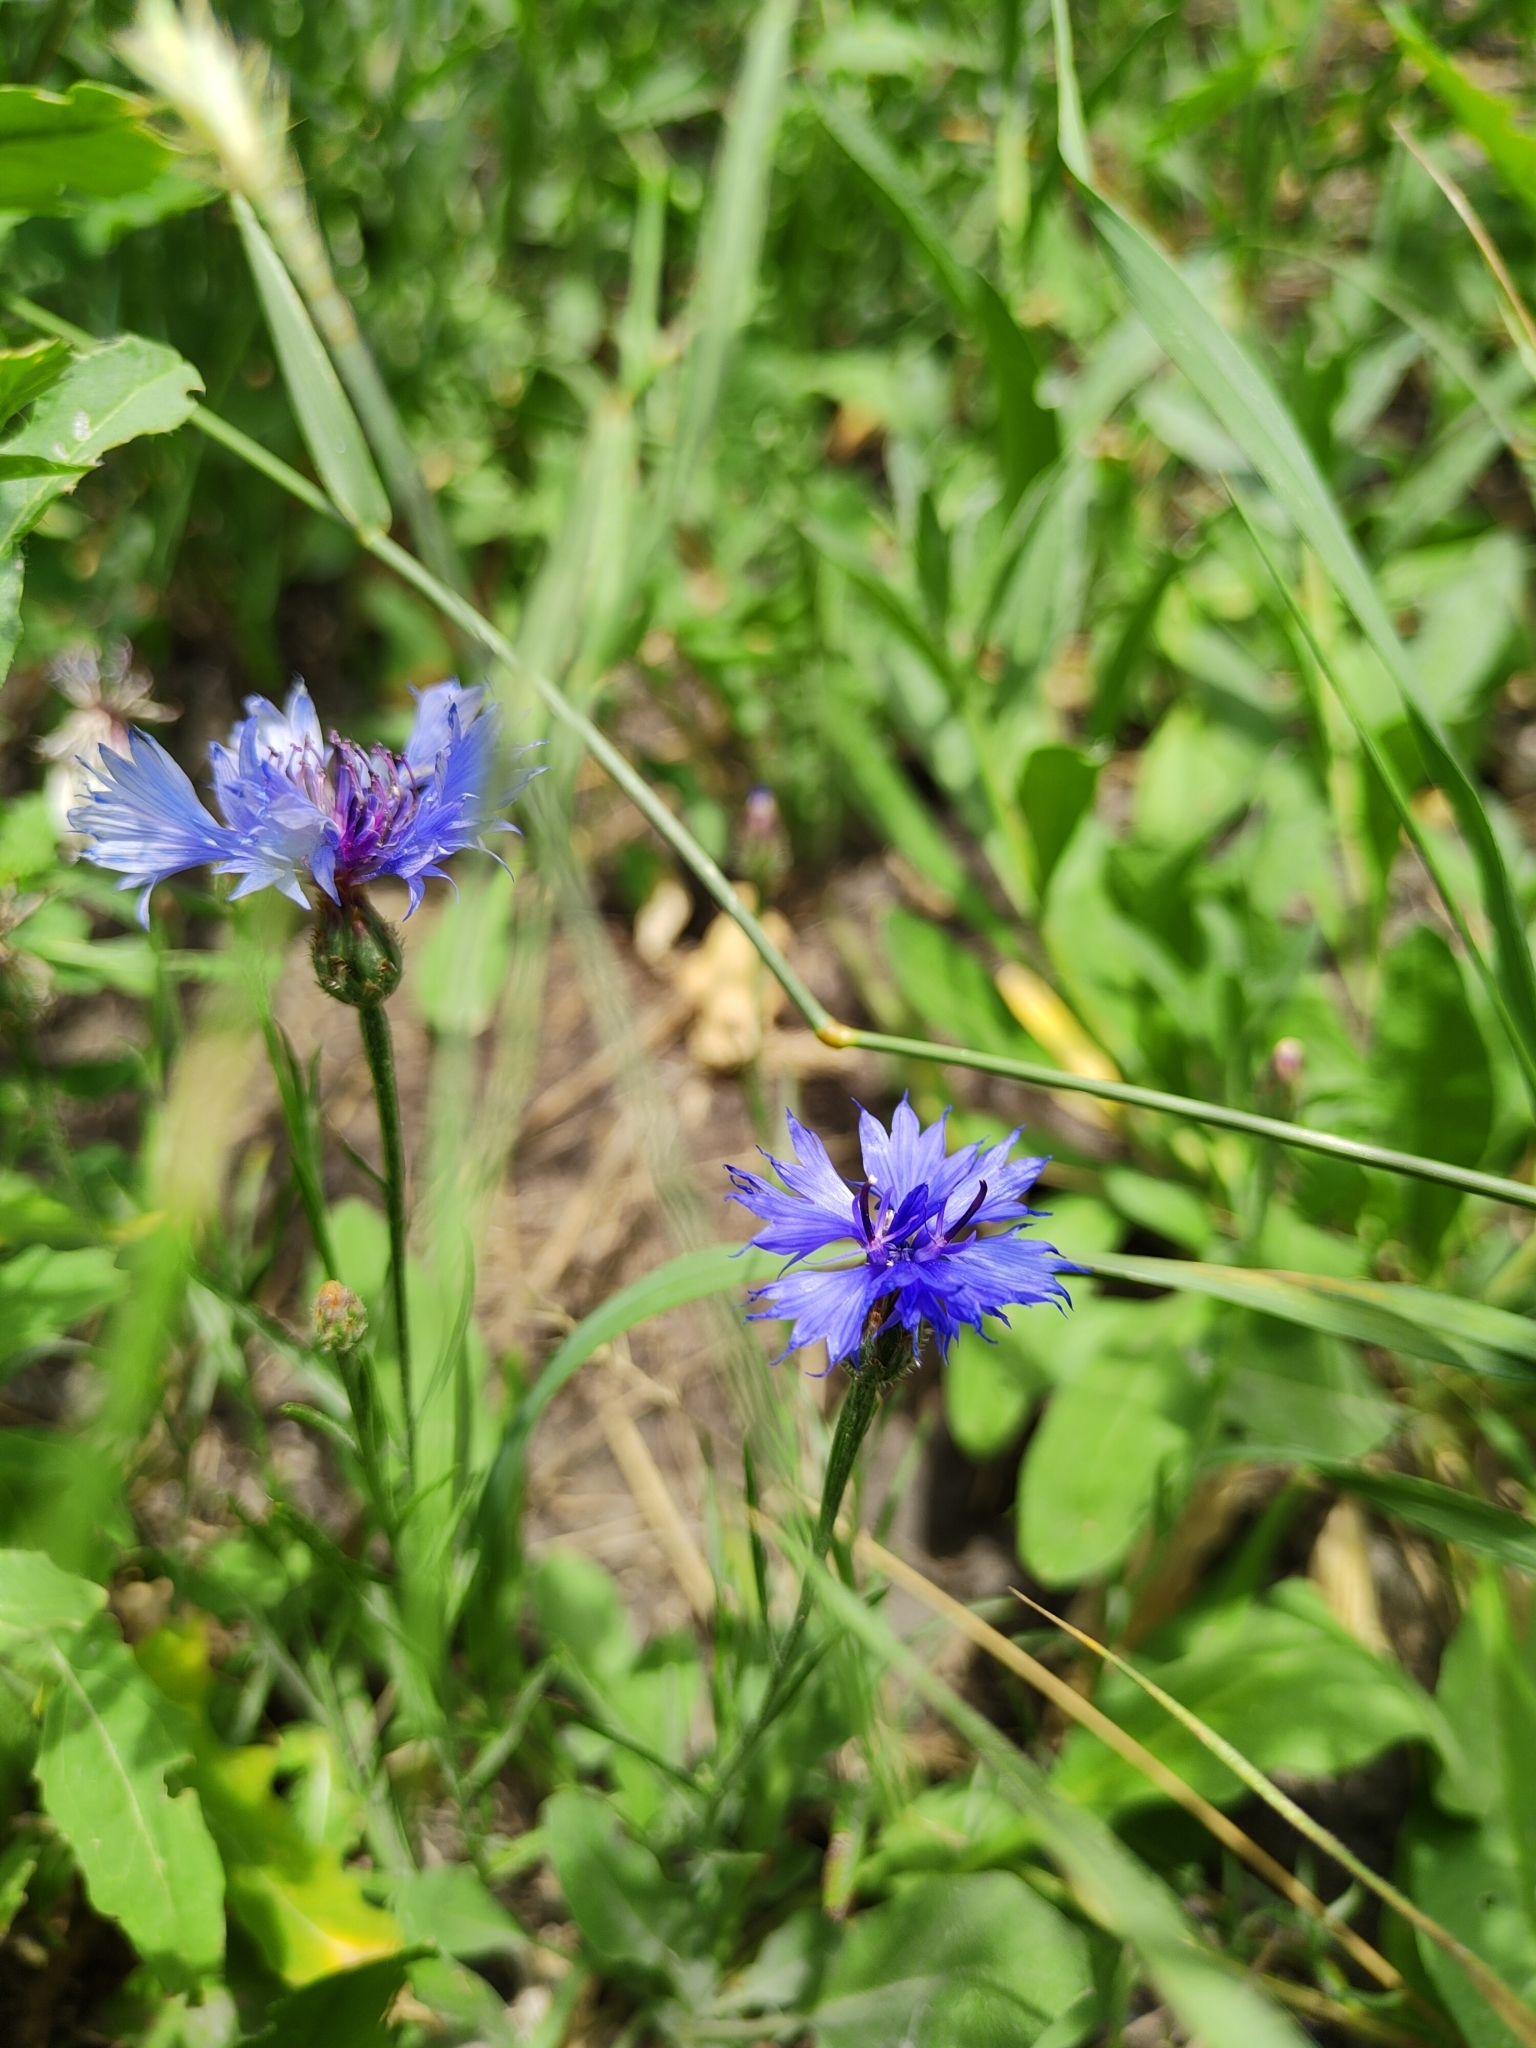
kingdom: Plantae
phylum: Tracheophyta
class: Magnoliopsida
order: Asterales
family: Asteraceae
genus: Centaurea
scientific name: Centaurea cyanus
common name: Cornflower
